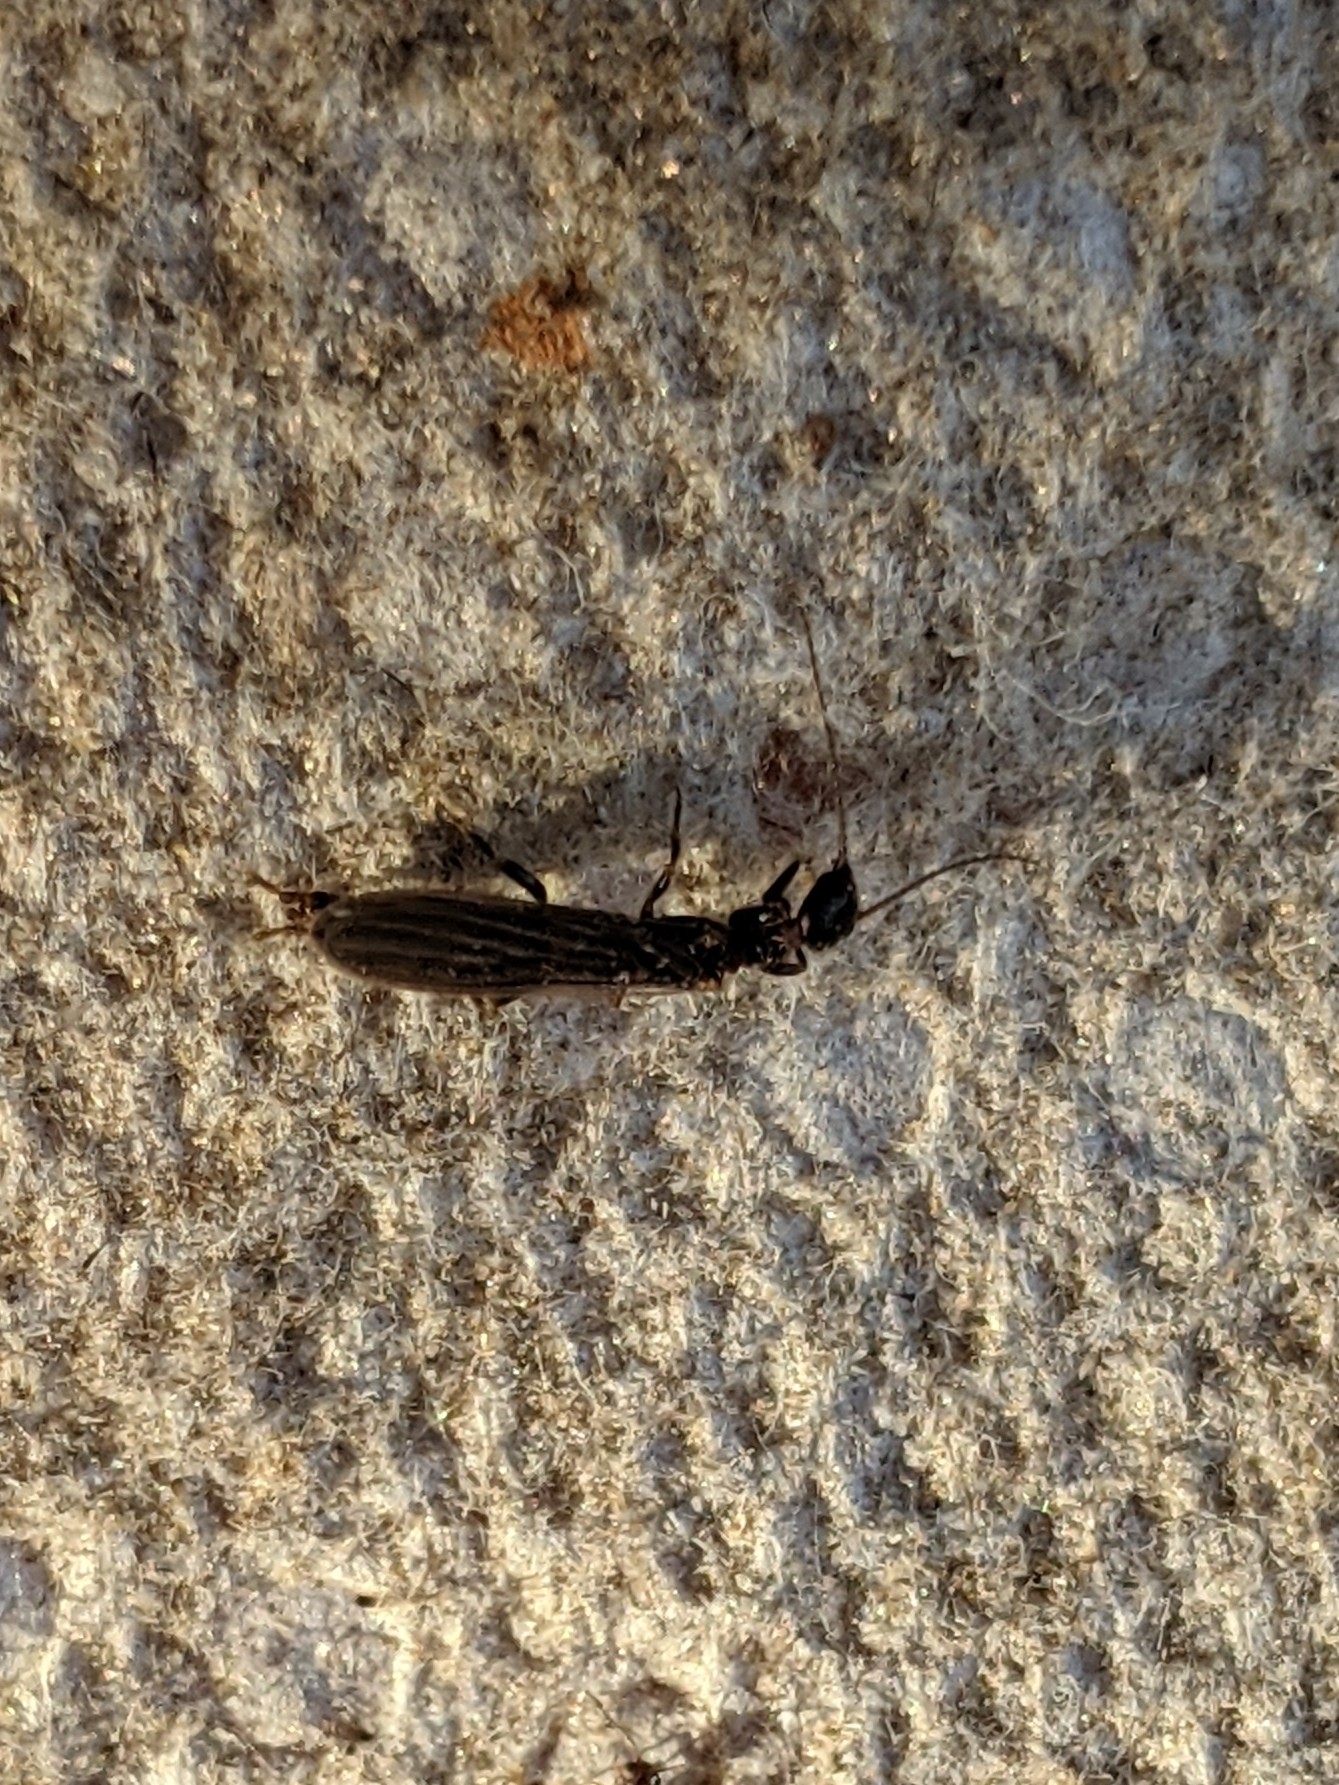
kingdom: Animalia
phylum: Arthropoda
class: Insecta
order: Embioptera
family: Oligotomidae
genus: Oligotoma
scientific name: Oligotoma nigra
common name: Black webspinner
